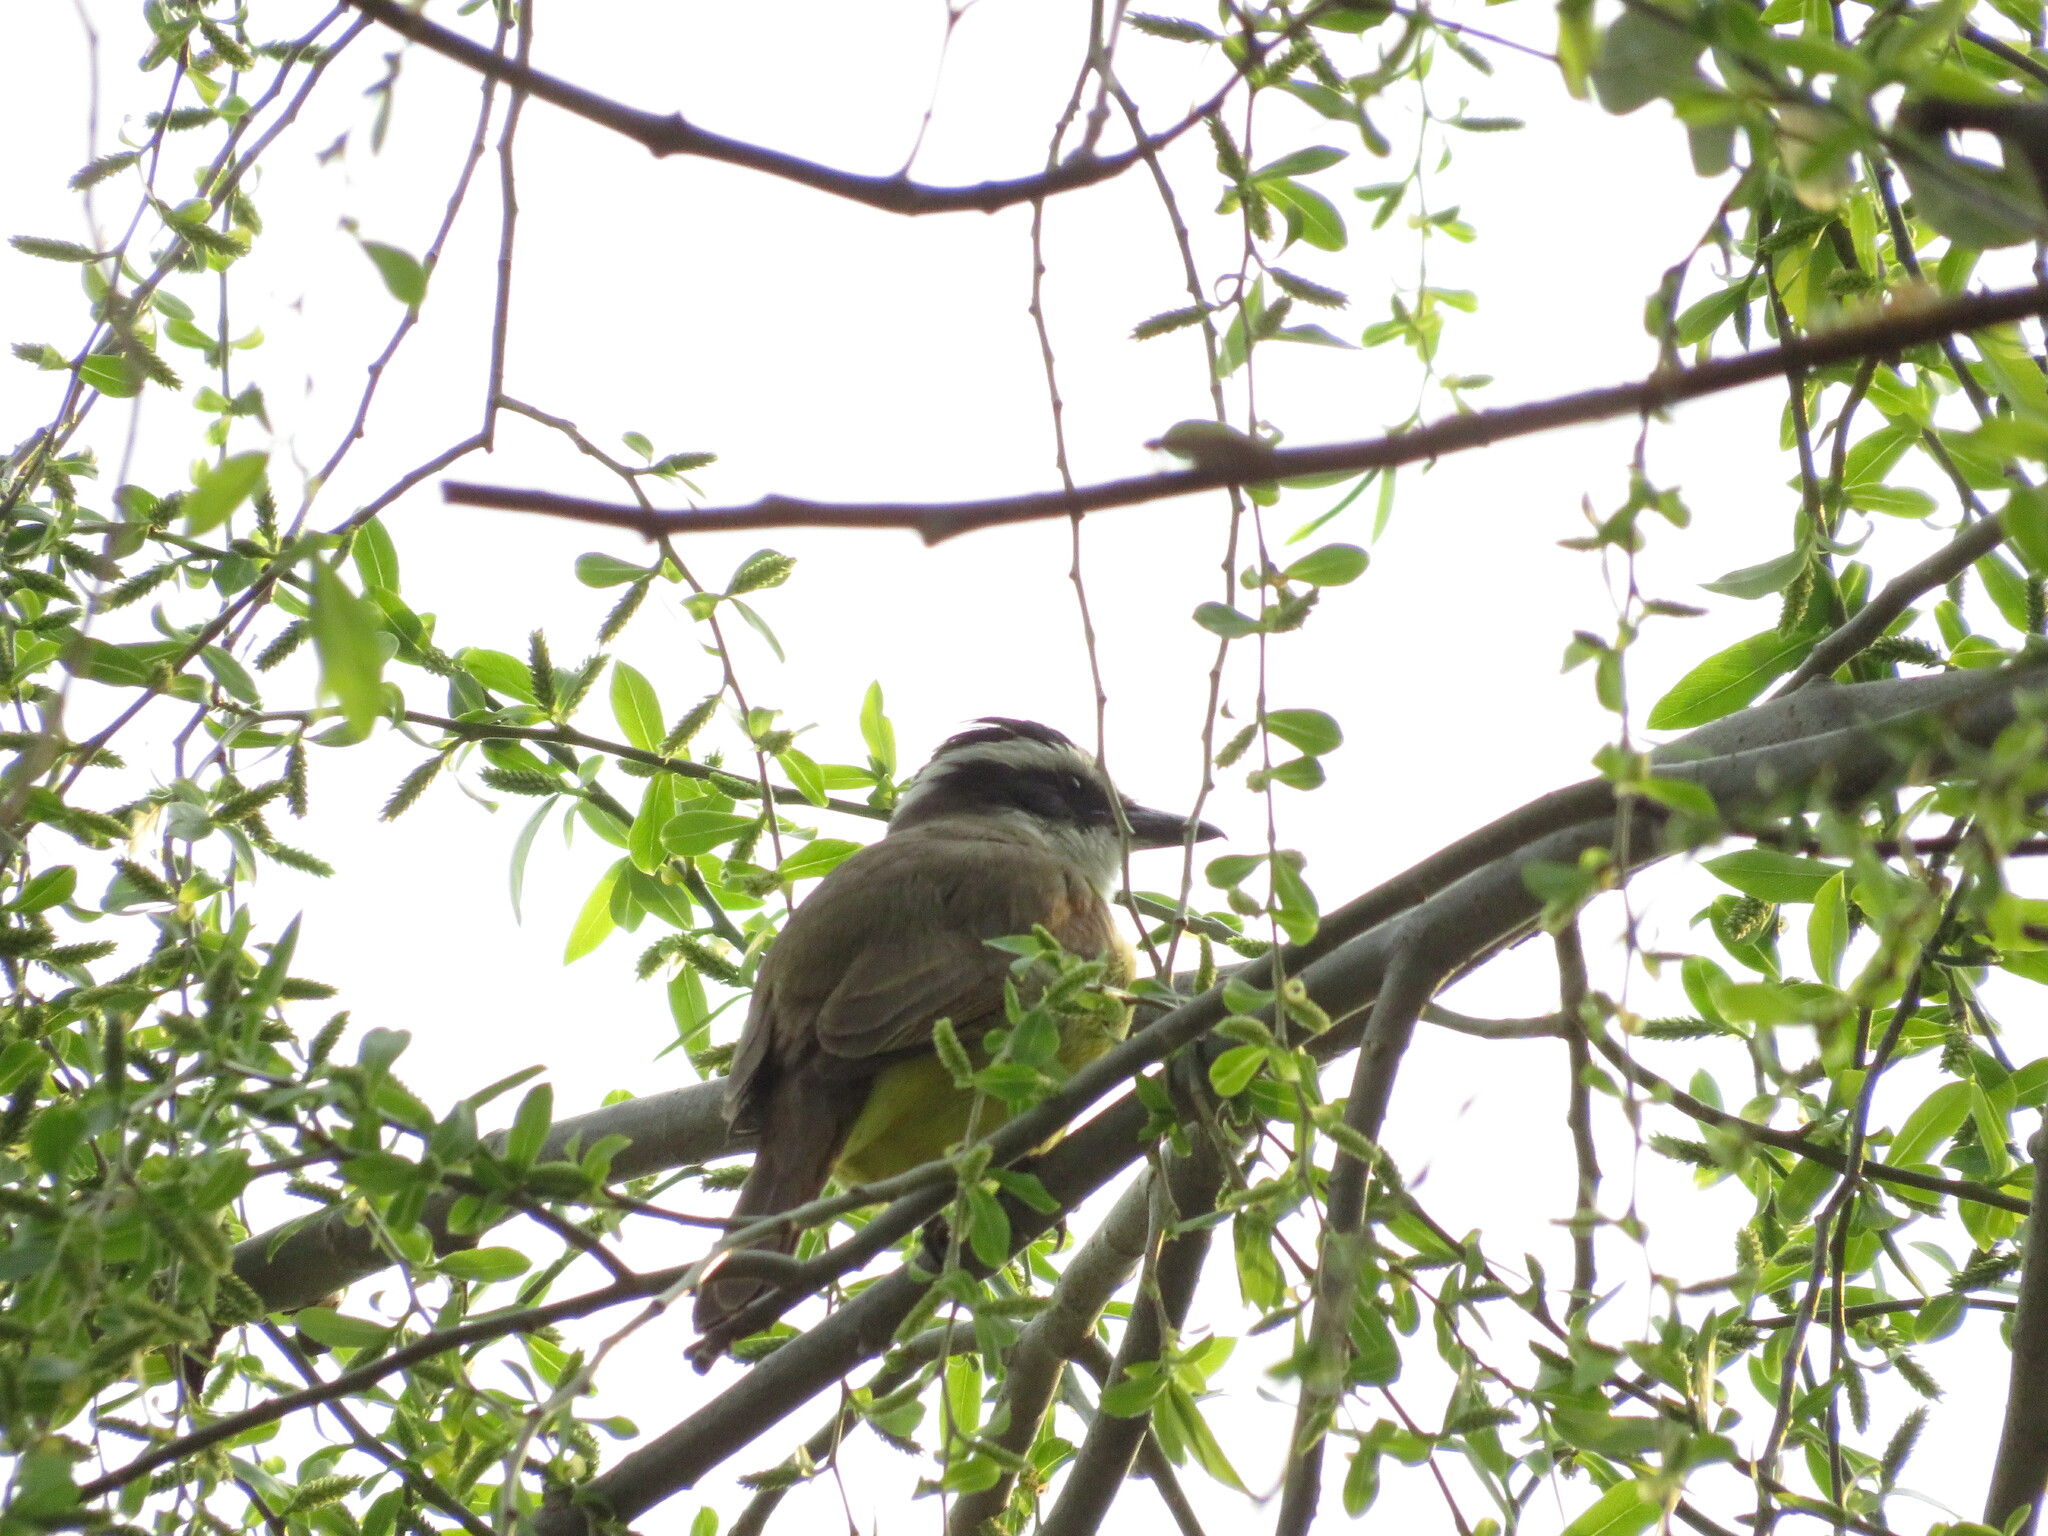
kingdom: Animalia
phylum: Chordata
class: Aves
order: Passeriformes
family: Tyrannidae
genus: Pitangus
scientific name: Pitangus sulphuratus
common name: Great kiskadee
